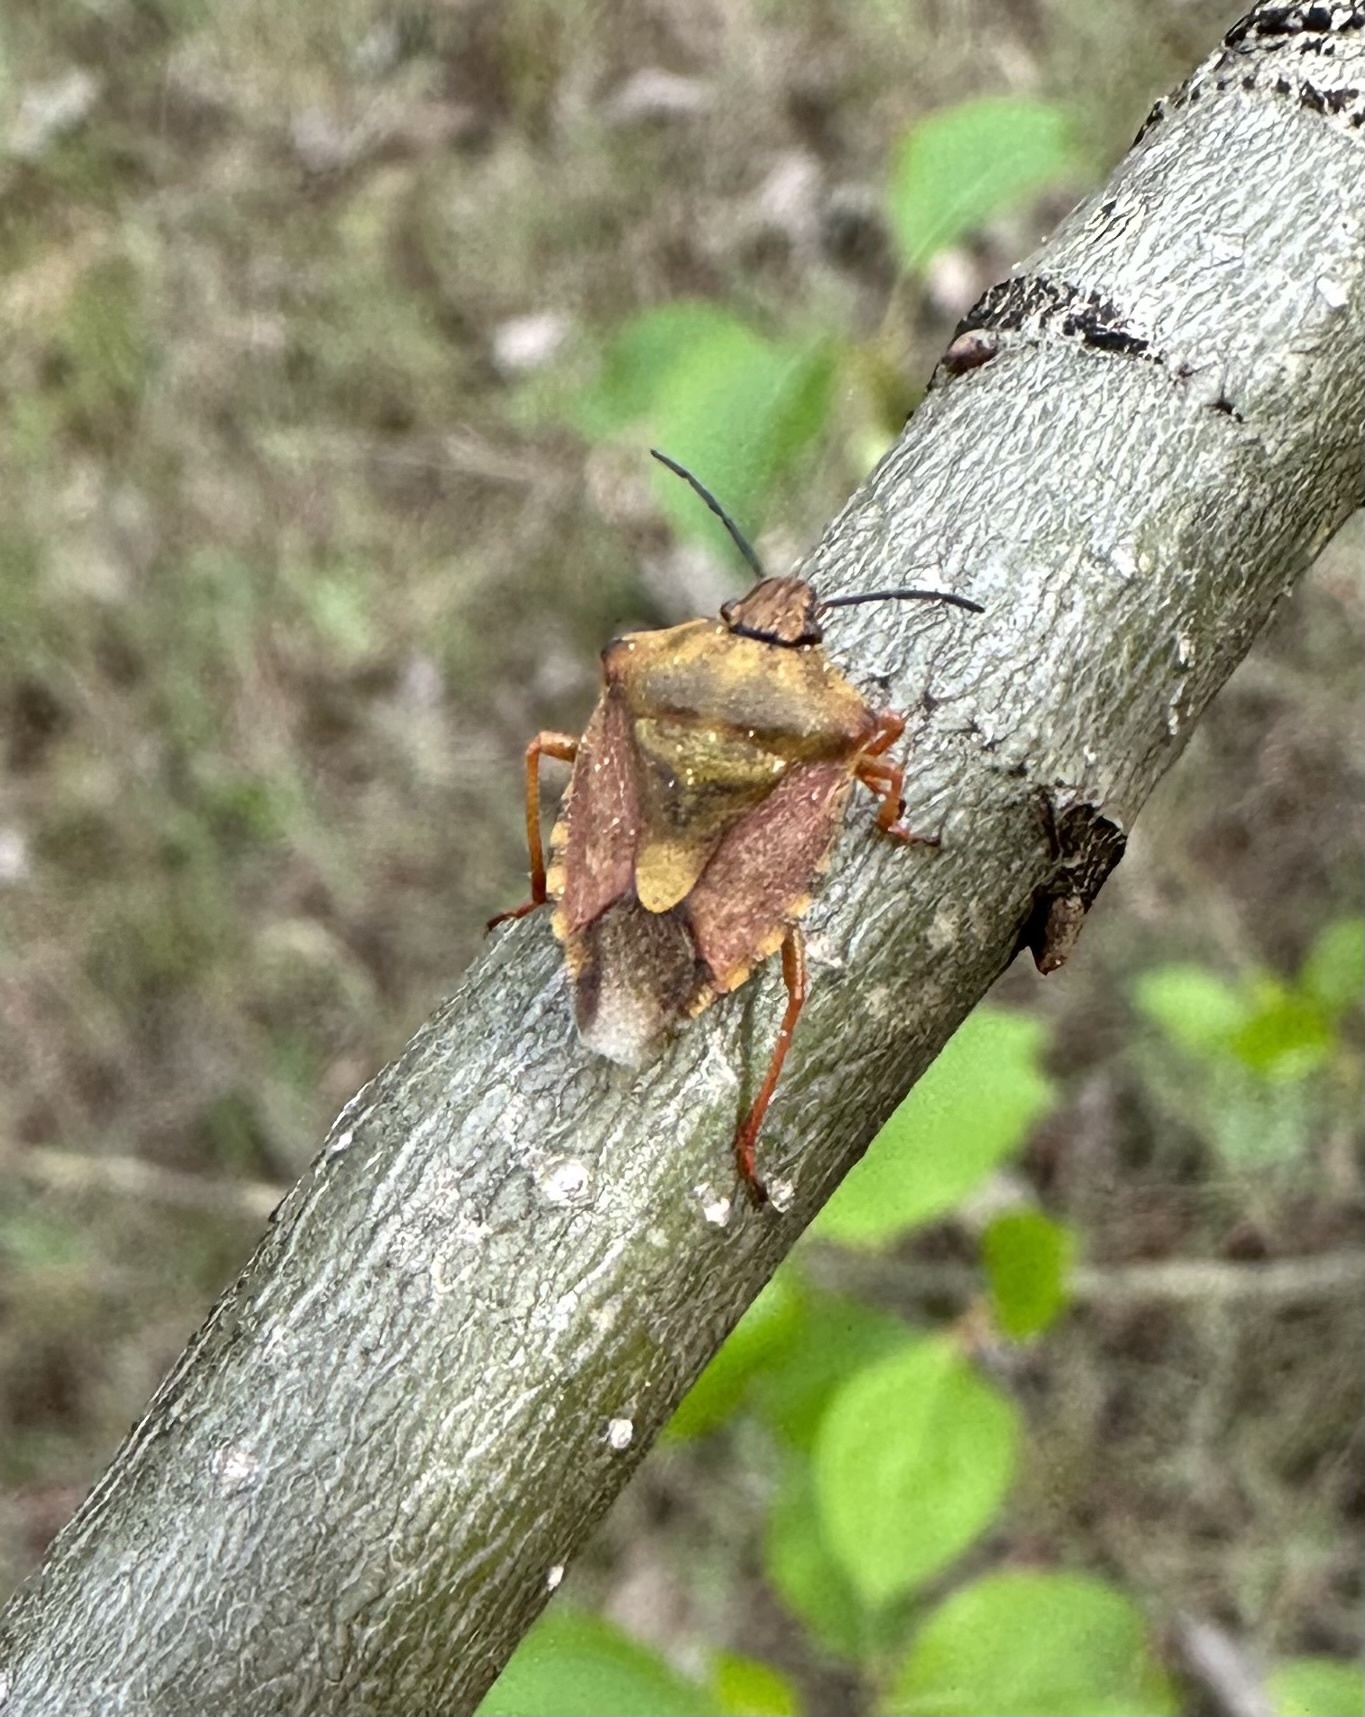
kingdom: Animalia
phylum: Arthropoda
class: Insecta
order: Hemiptera
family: Pentatomidae
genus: Carpocoris
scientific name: Carpocoris purpureipennis
